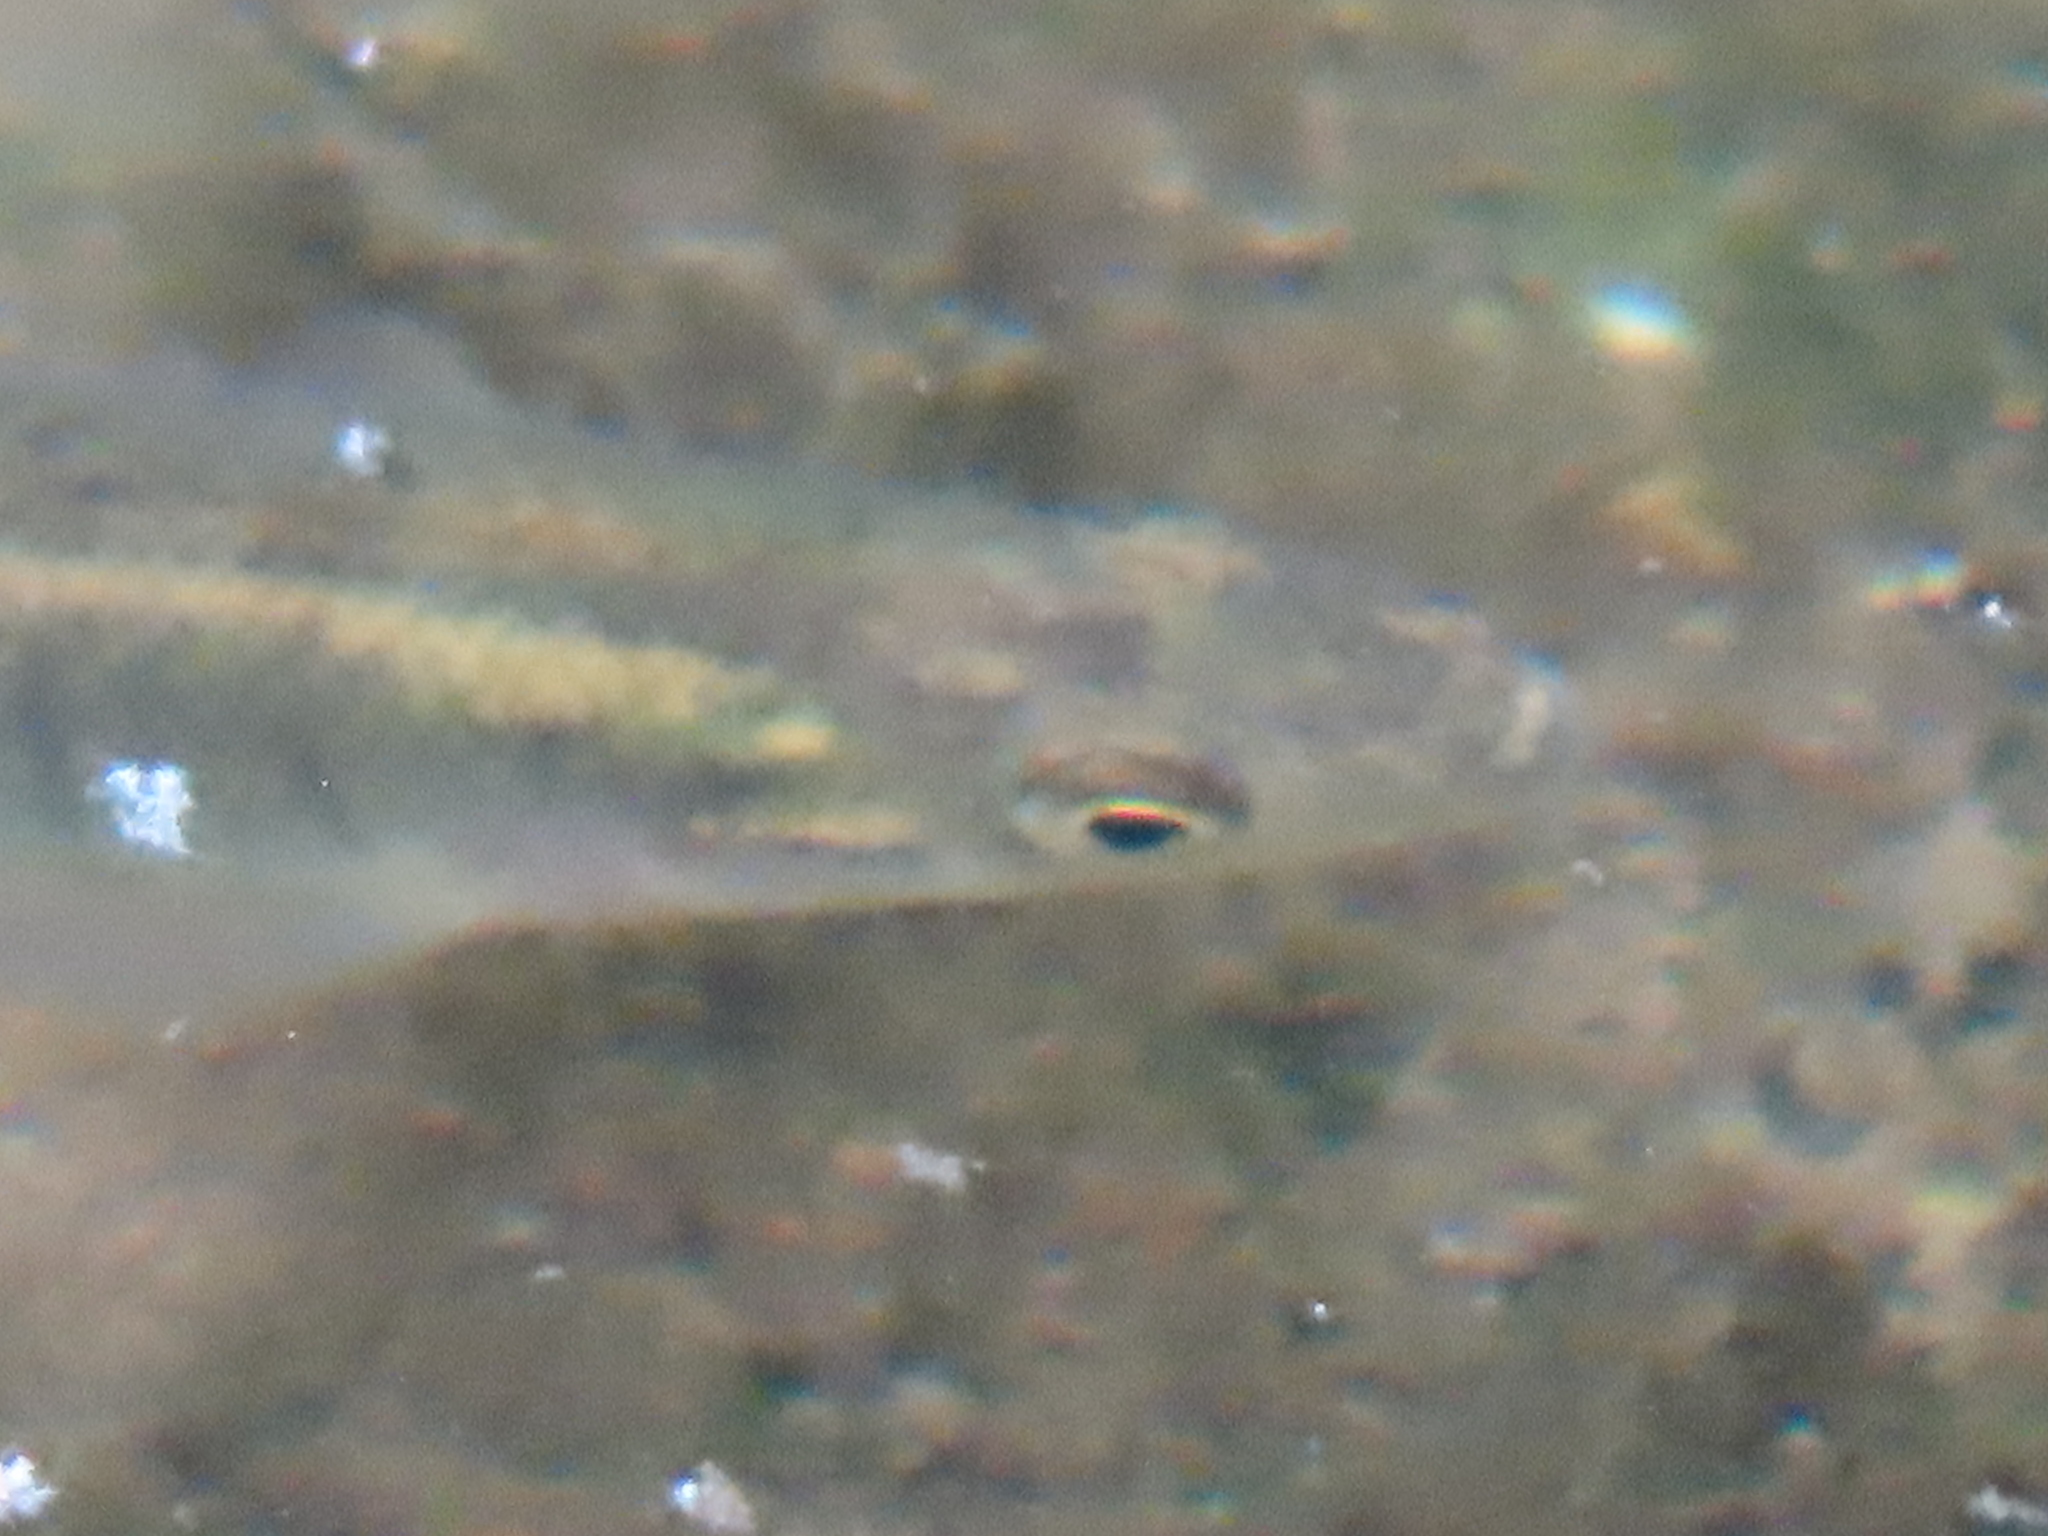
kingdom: Animalia
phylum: Chordata
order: Cyprinodontiformes
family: Fundulidae
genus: Fundulus
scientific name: Fundulus diaphanus
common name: Banded killifish
